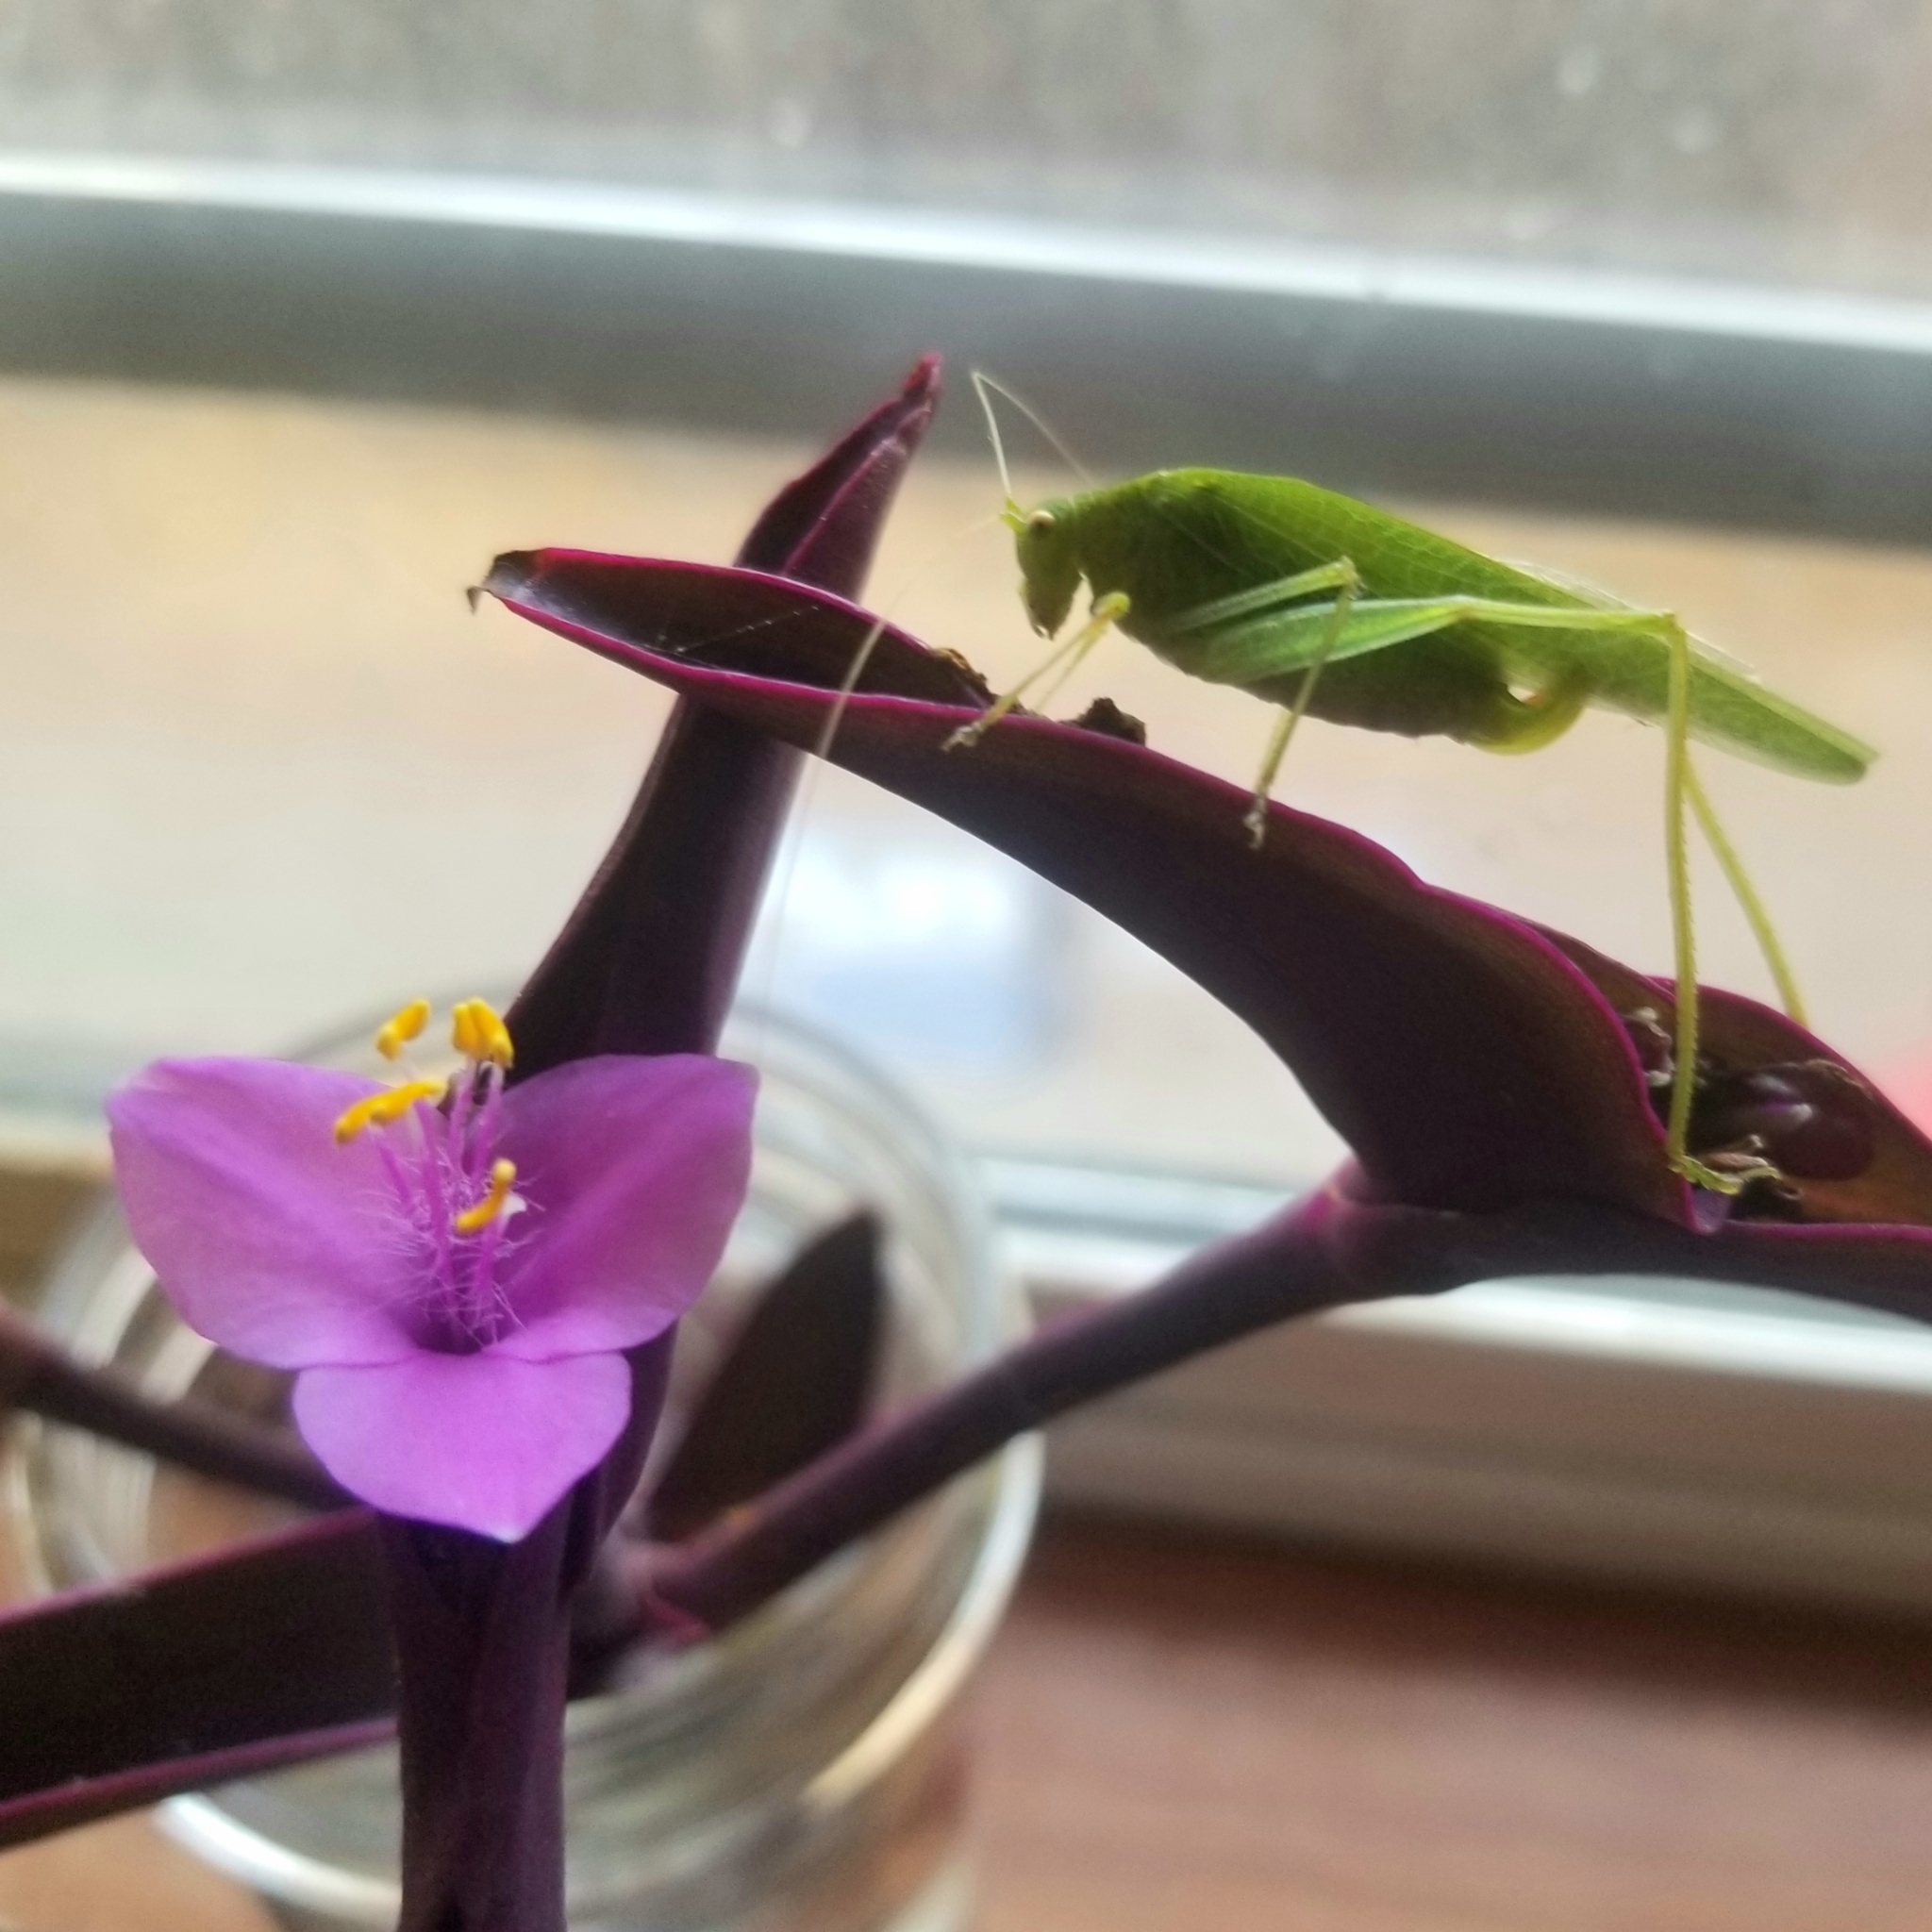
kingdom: Animalia
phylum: Arthropoda
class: Insecta
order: Orthoptera
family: Tettigoniidae
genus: Phaneroptera
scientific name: Phaneroptera nana
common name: Southern sickle bush-cricket
